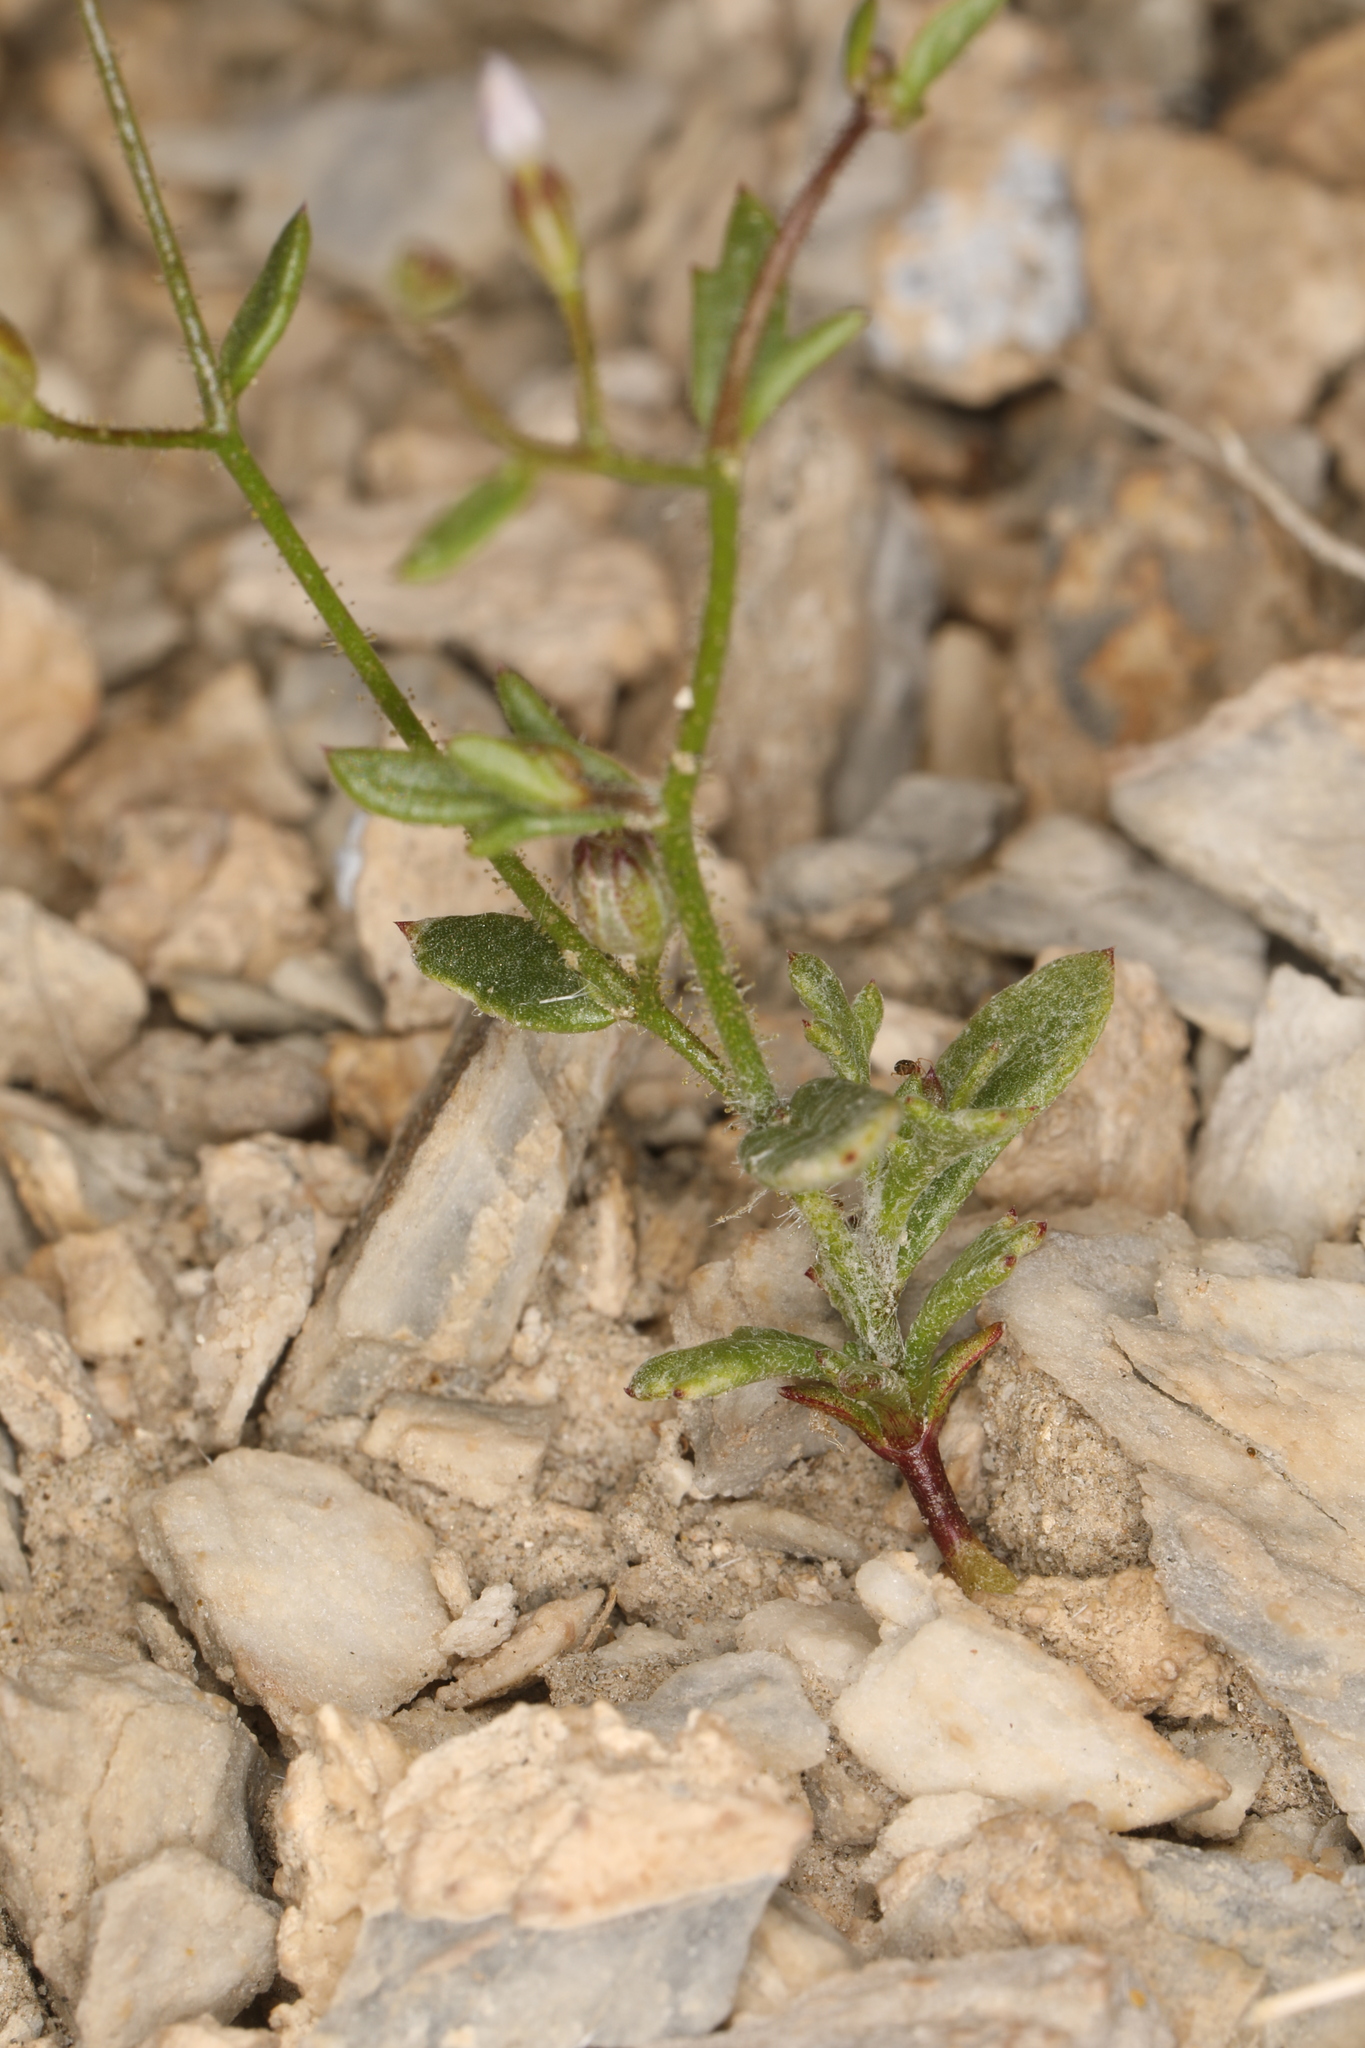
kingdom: Plantae
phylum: Tracheophyta
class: Magnoliopsida
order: Ericales
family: Polemoniaceae
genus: Gilia
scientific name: Gilia clokeyi
